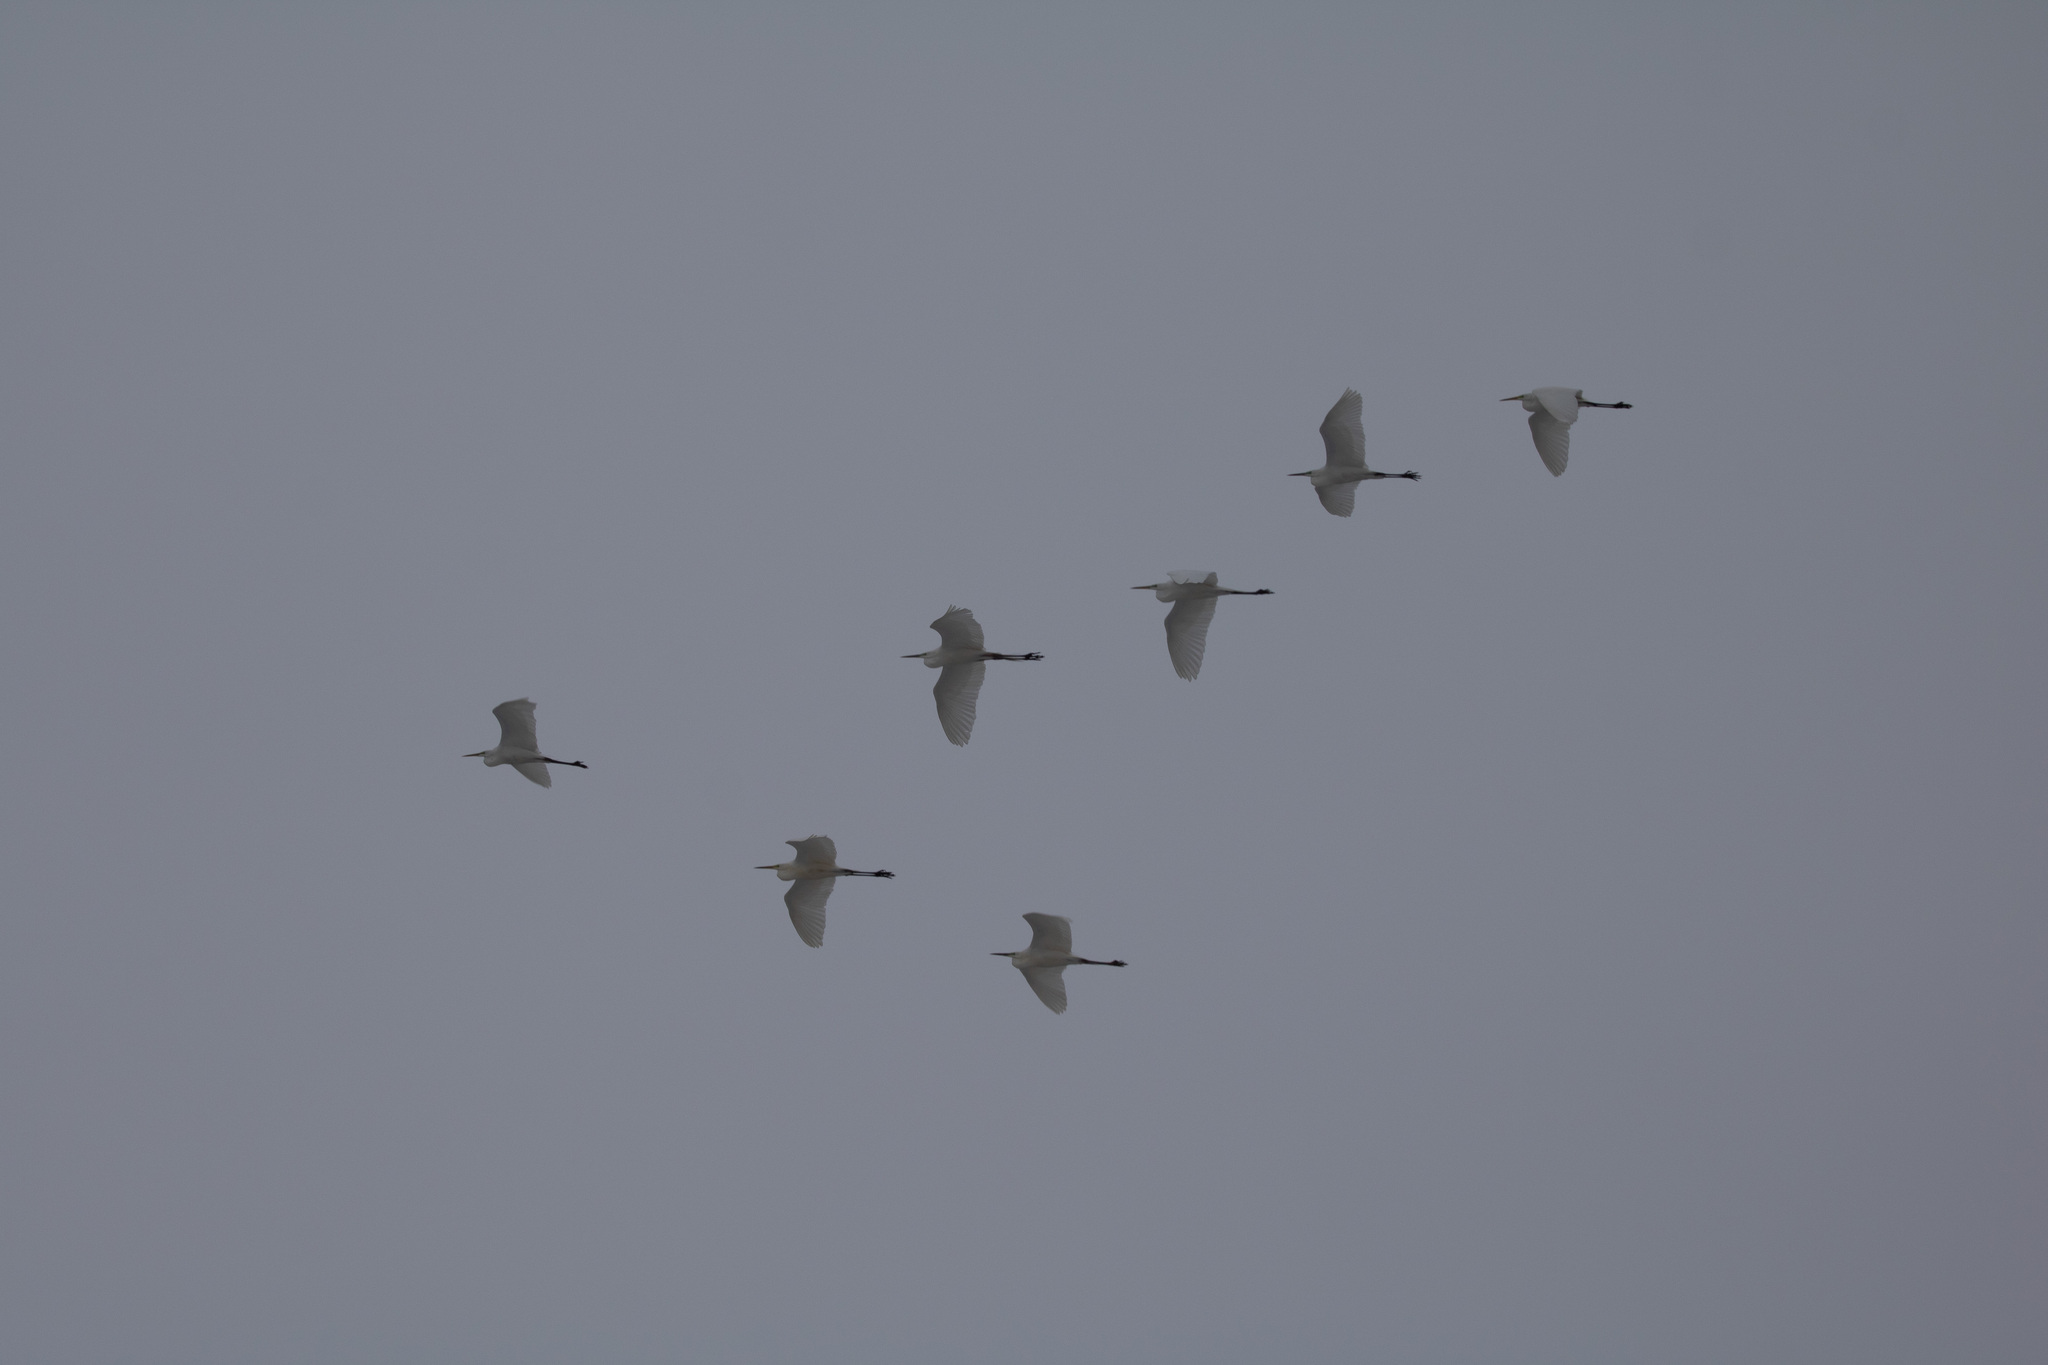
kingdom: Animalia
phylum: Chordata
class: Aves
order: Pelecaniformes
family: Ardeidae
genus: Ardea
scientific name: Ardea alba
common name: Great egret
